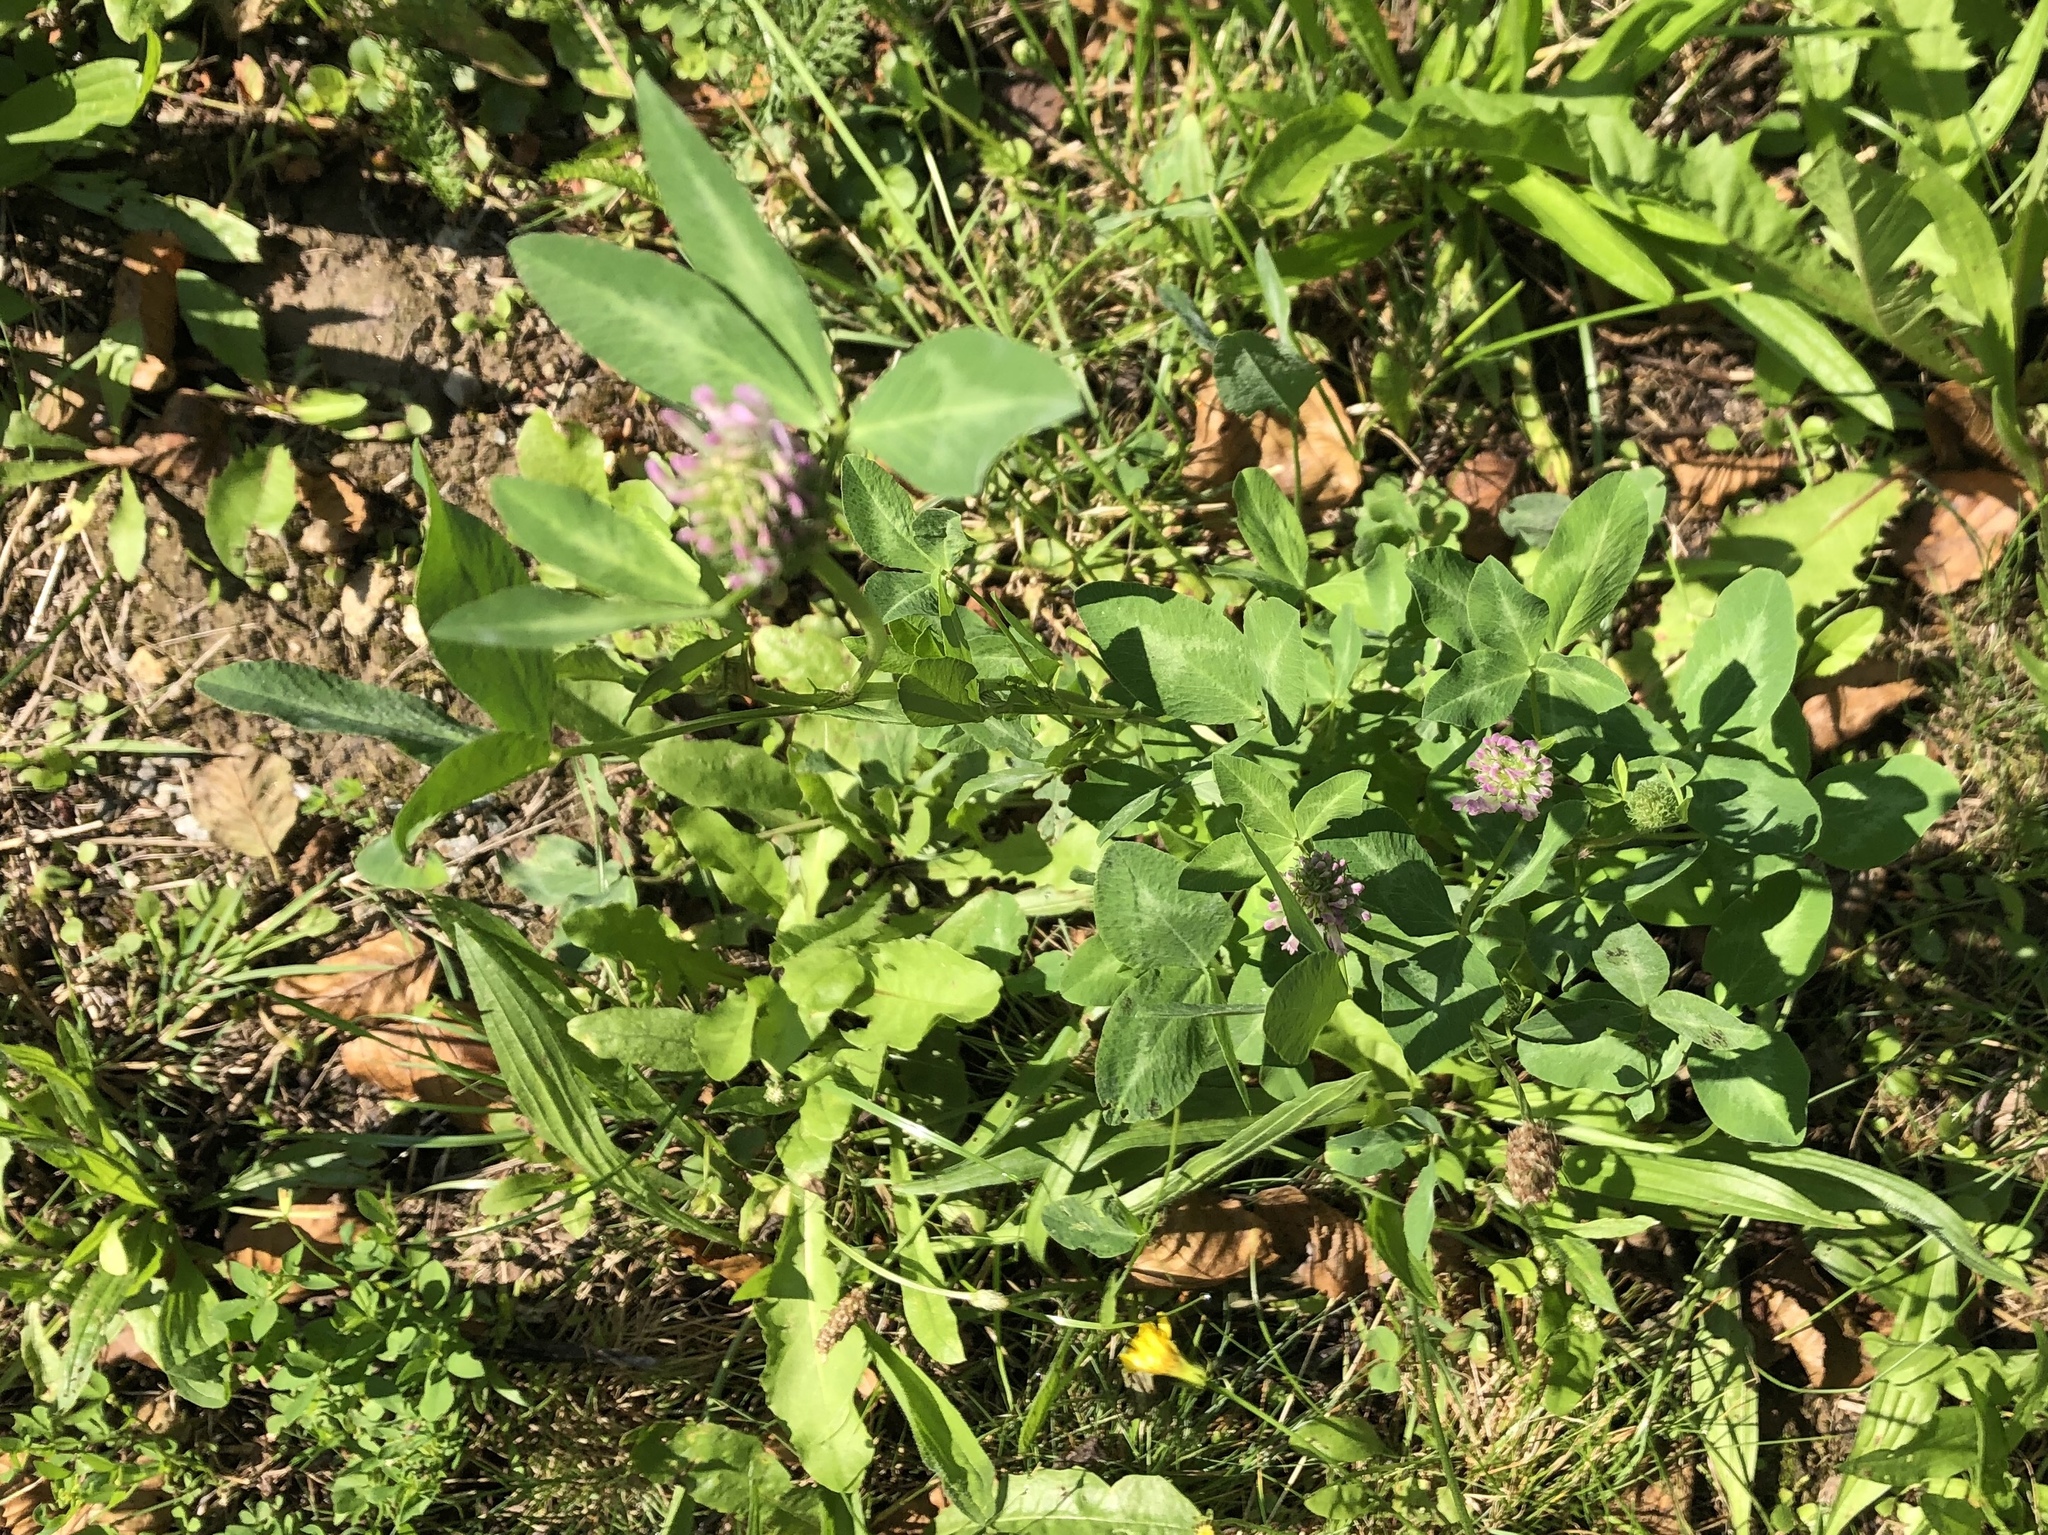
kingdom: Plantae
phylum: Tracheophyta
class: Magnoliopsida
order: Fabales
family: Fabaceae
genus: Trifolium
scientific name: Trifolium pratense
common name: Red clover
